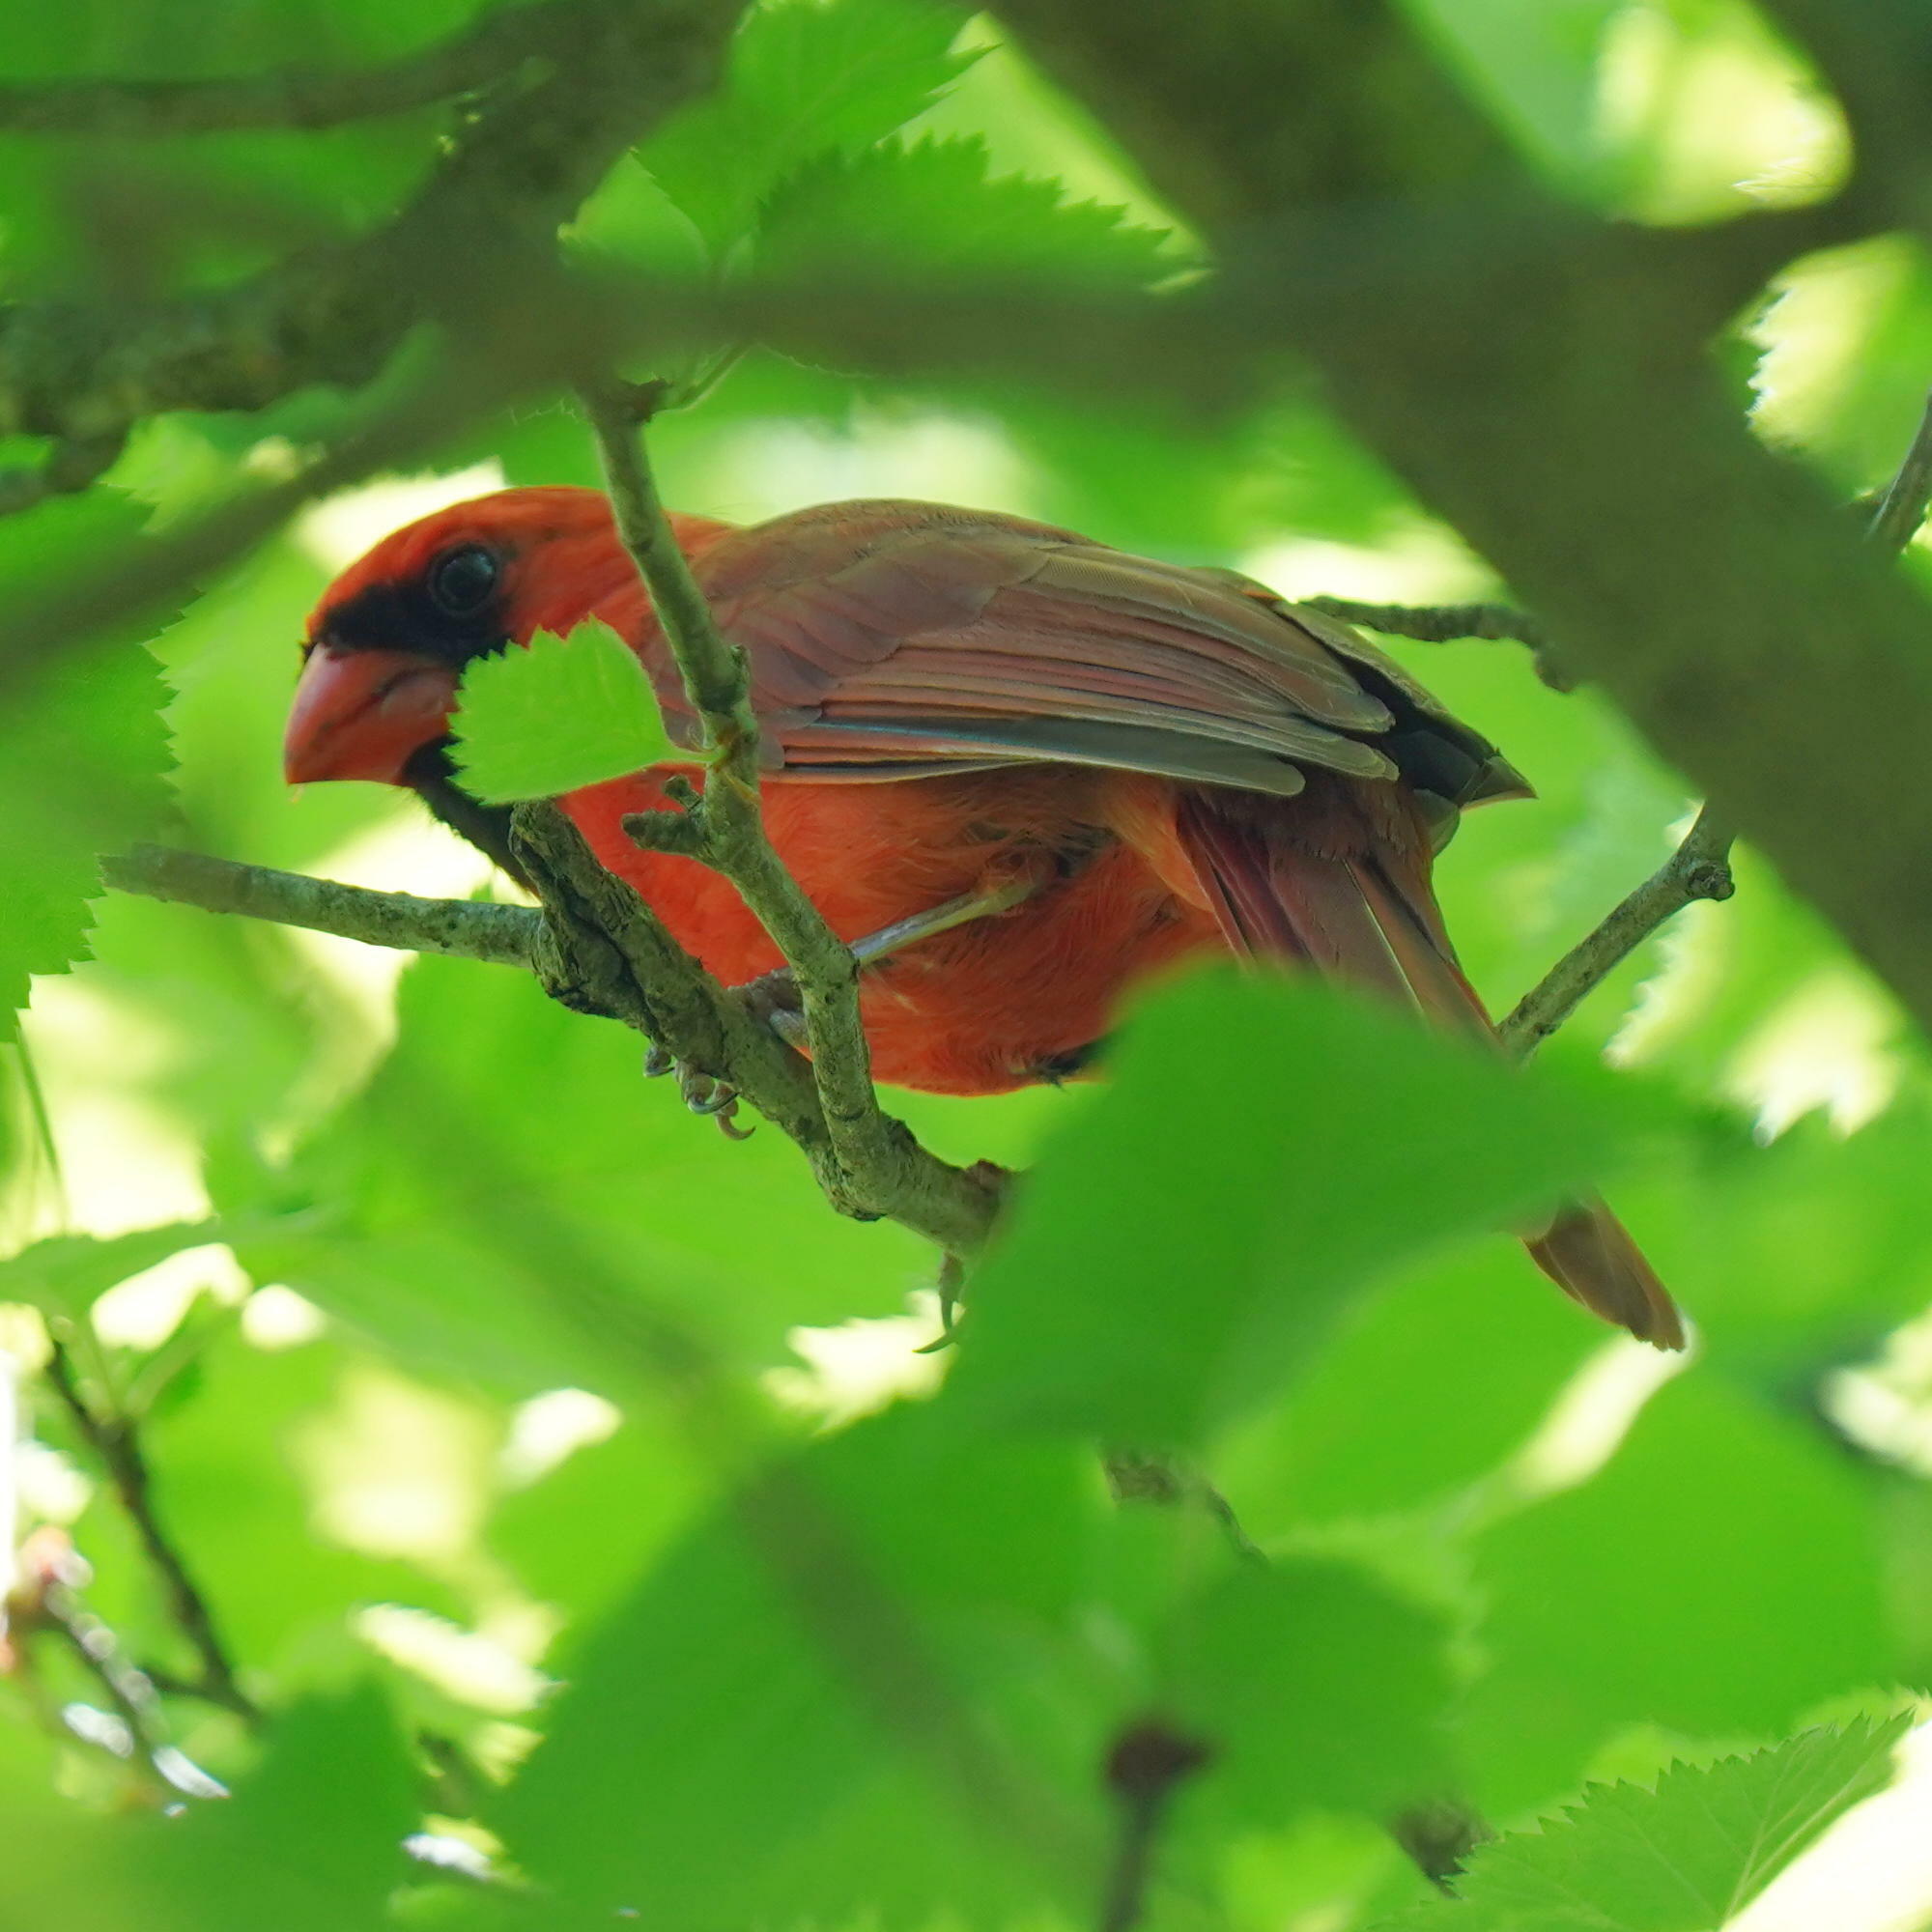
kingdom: Animalia
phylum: Chordata
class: Aves
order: Passeriformes
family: Cardinalidae
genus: Cardinalis
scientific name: Cardinalis cardinalis
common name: Northern cardinal
